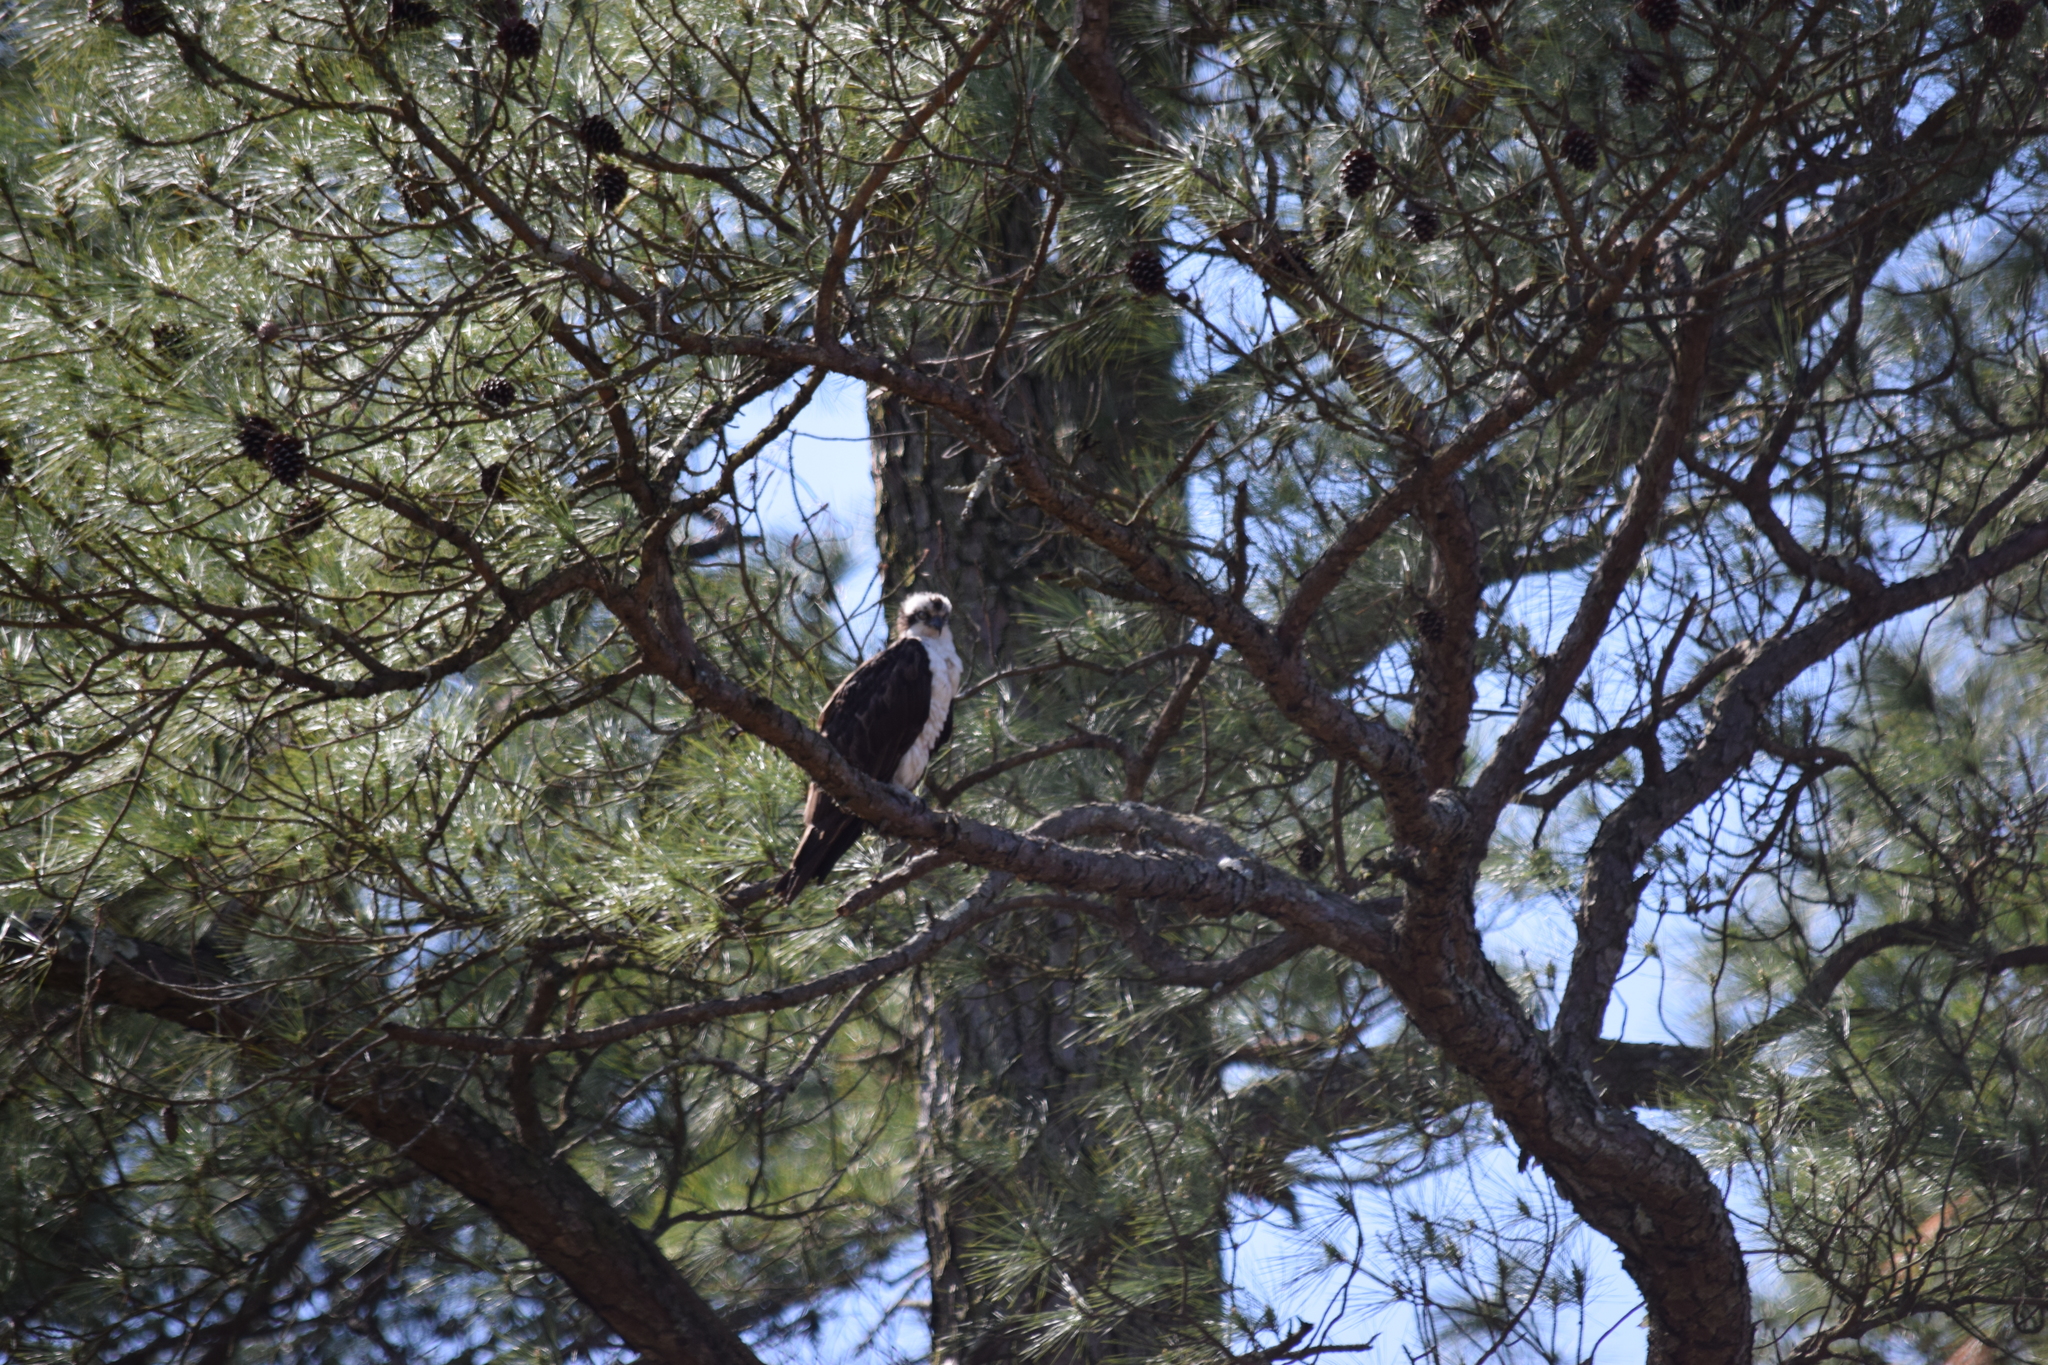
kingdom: Animalia
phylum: Chordata
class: Aves
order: Accipitriformes
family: Pandionidae
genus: Pandion
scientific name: Pandion haliaetus
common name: Osprey
